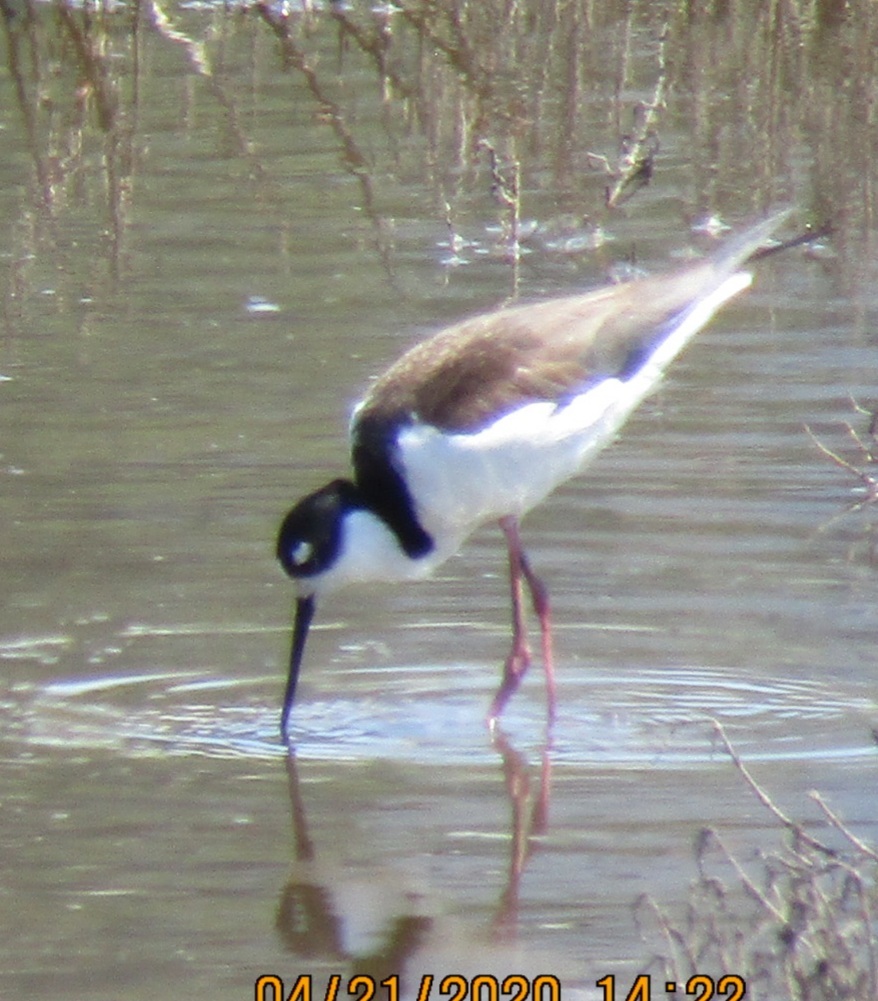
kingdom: Animalia
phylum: Chordata
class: Aves
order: Charadriiformes
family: Recurvirostridae
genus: Himantopus
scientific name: Himantopus mexicanus
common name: Black-necked stilt
